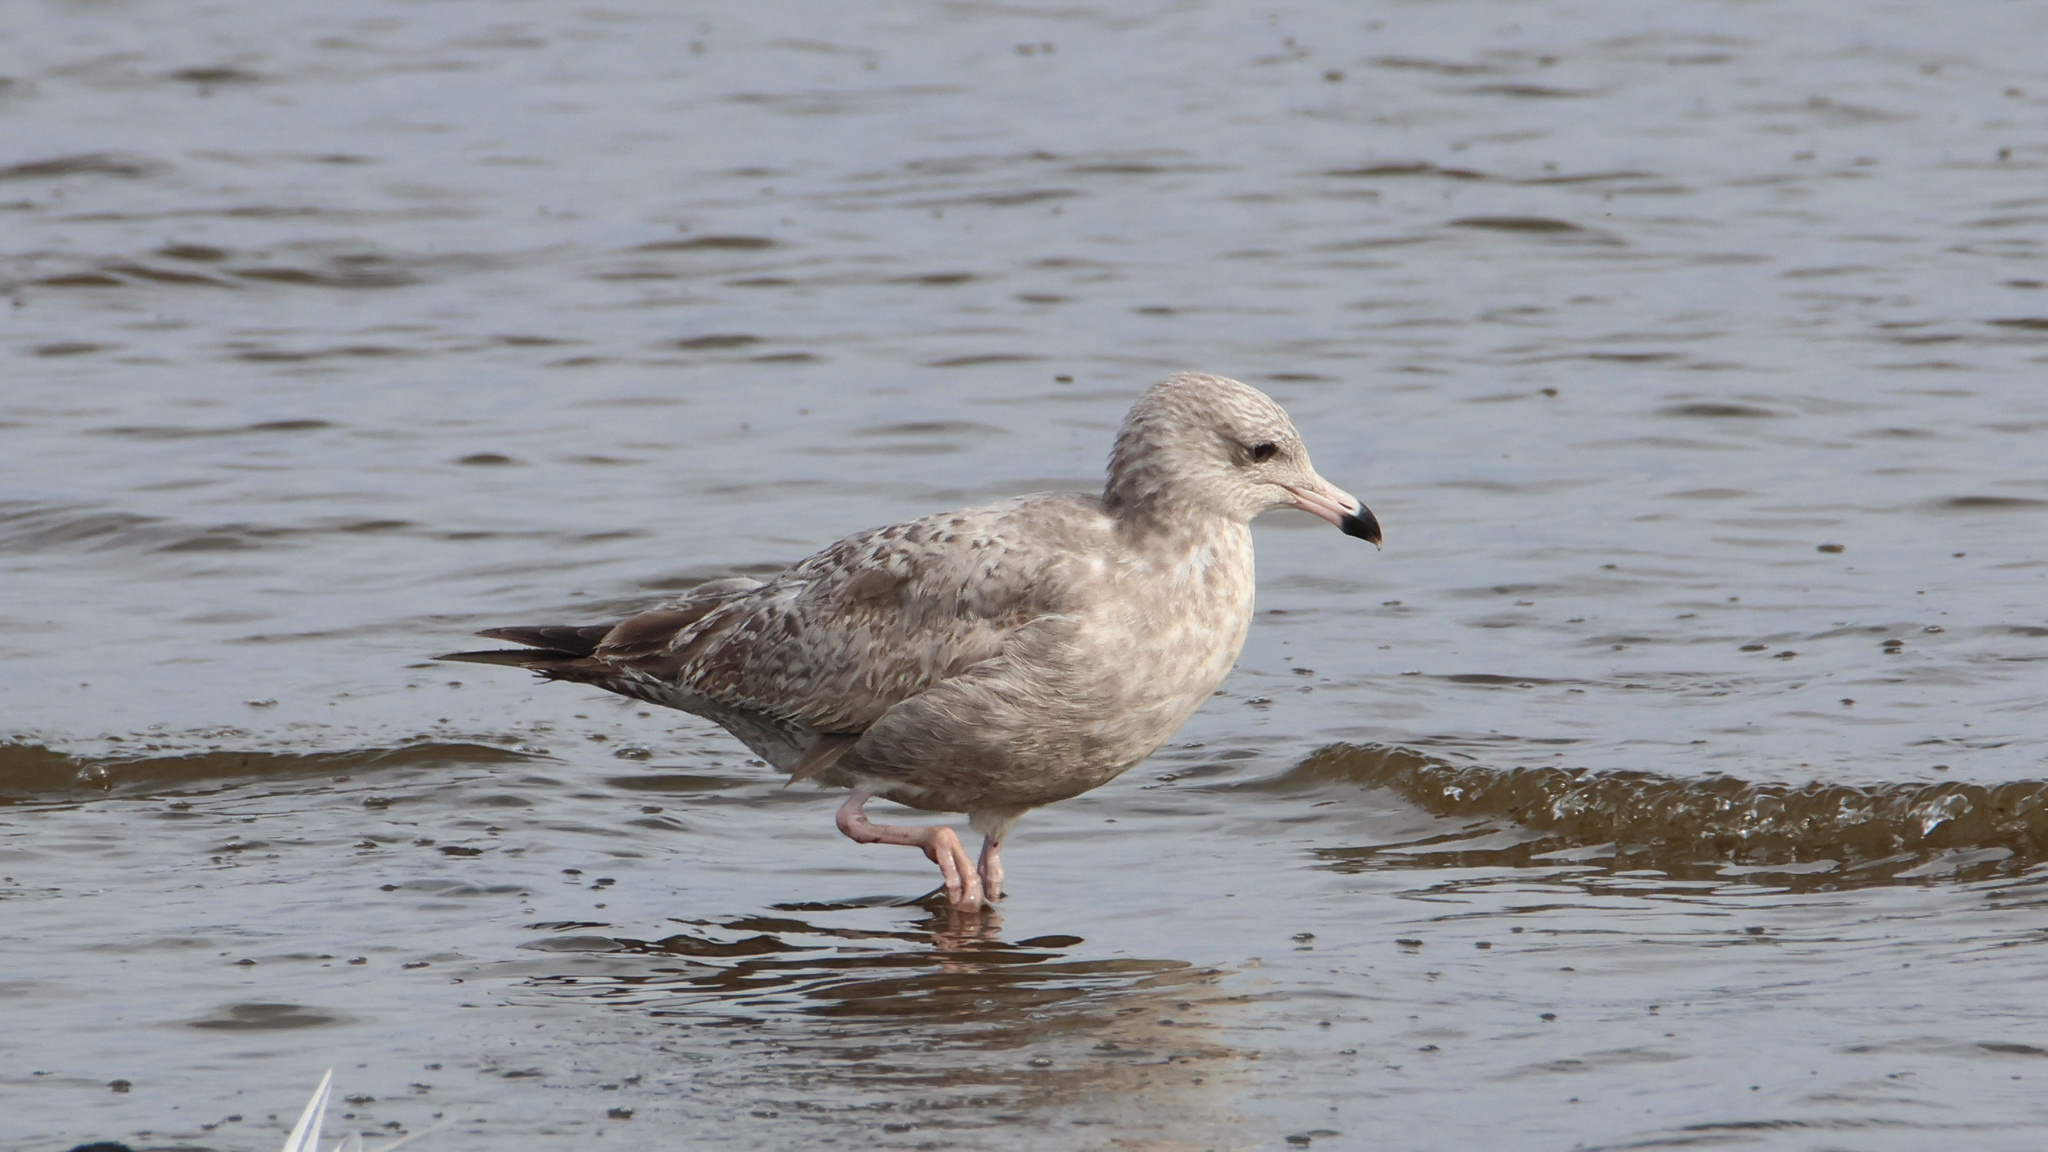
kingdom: Animalia
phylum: Chordata
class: Aves
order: Charadriiformes
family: Laridae
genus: Larus
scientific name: Larus argentatus
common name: Herring gull
